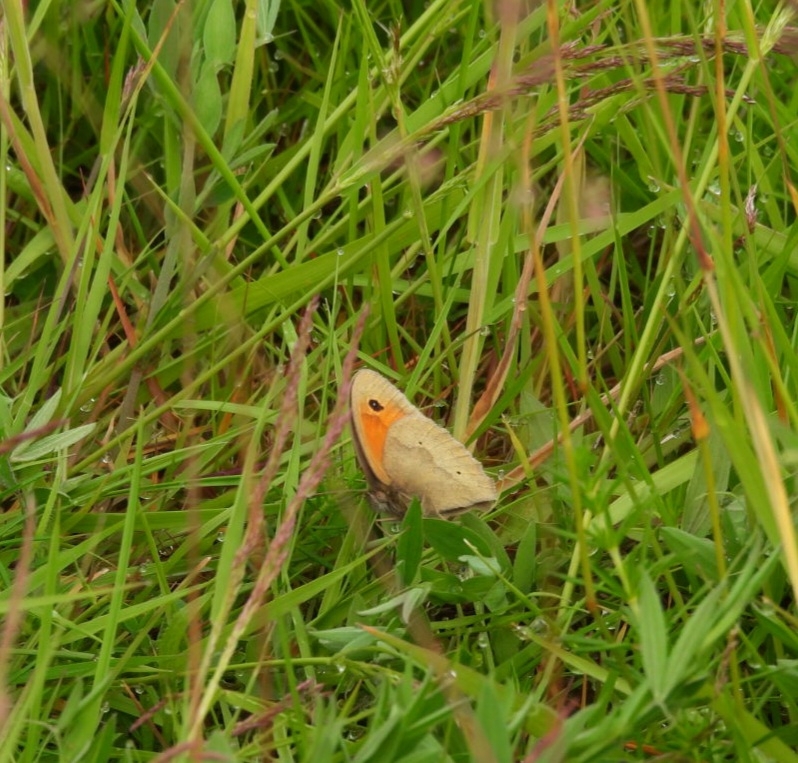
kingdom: Animalia
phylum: Arthropoda
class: Insecta
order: Lepidoptera
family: Nymphalidae
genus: Maniola
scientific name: Maniola jurtina
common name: Meadow brown
